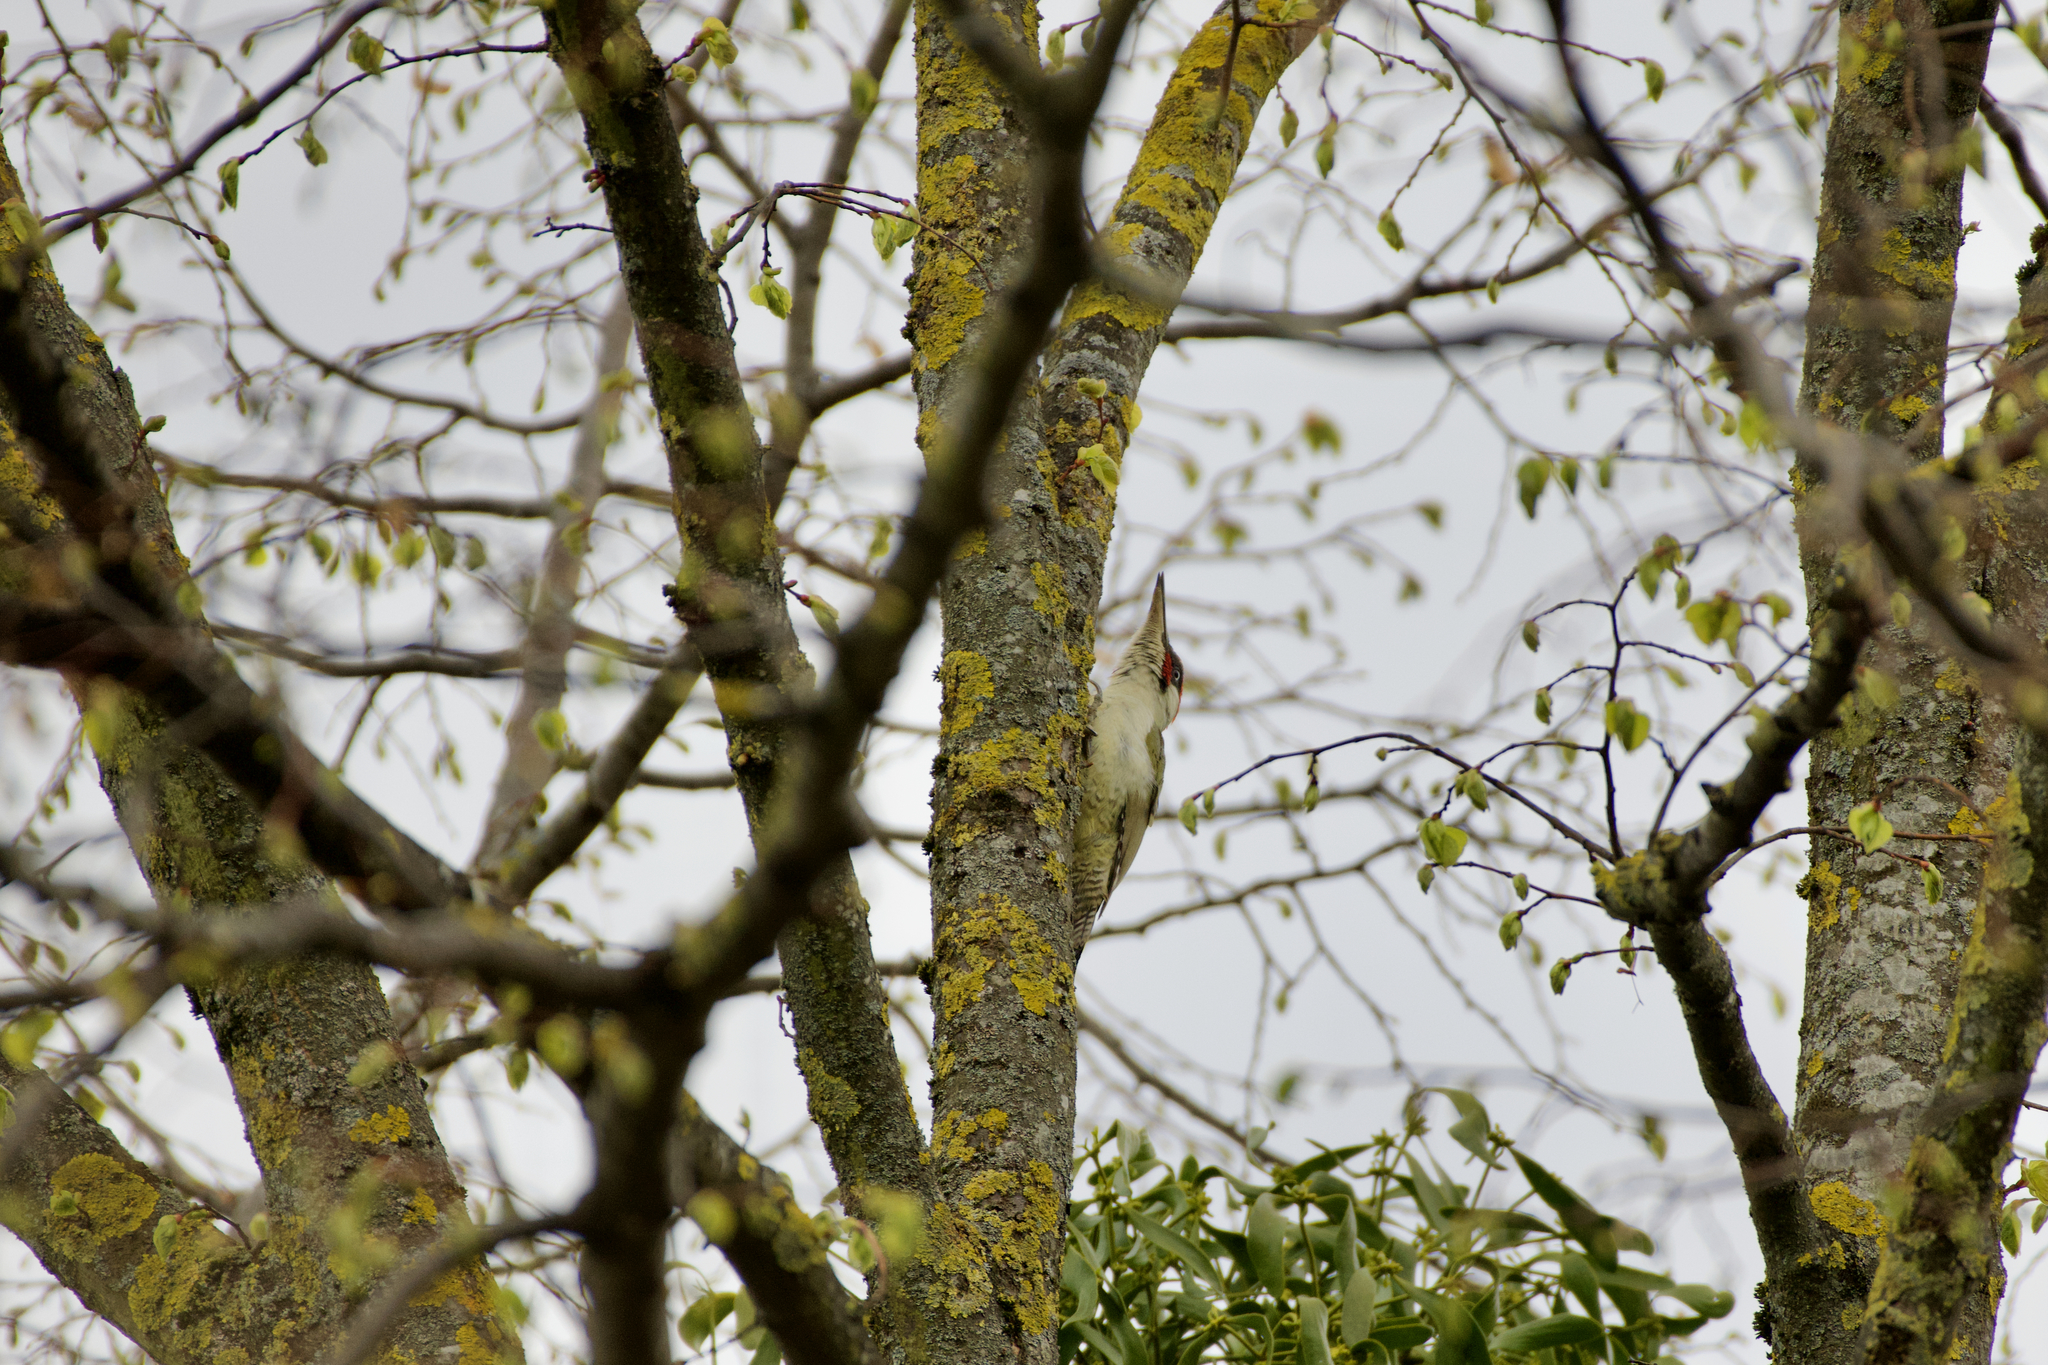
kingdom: Animalia
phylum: Chordata
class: Aves
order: Piciformes
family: Picidae
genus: Picus
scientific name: Picus viridis
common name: European green woodpecker
